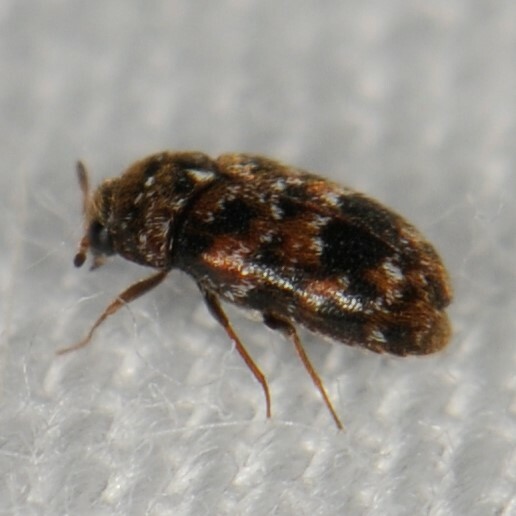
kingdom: Animalia
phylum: Arthropoda
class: Insecta
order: Coleoptera
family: Dermestidae
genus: Trogoderma
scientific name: Trogoderma sternale
